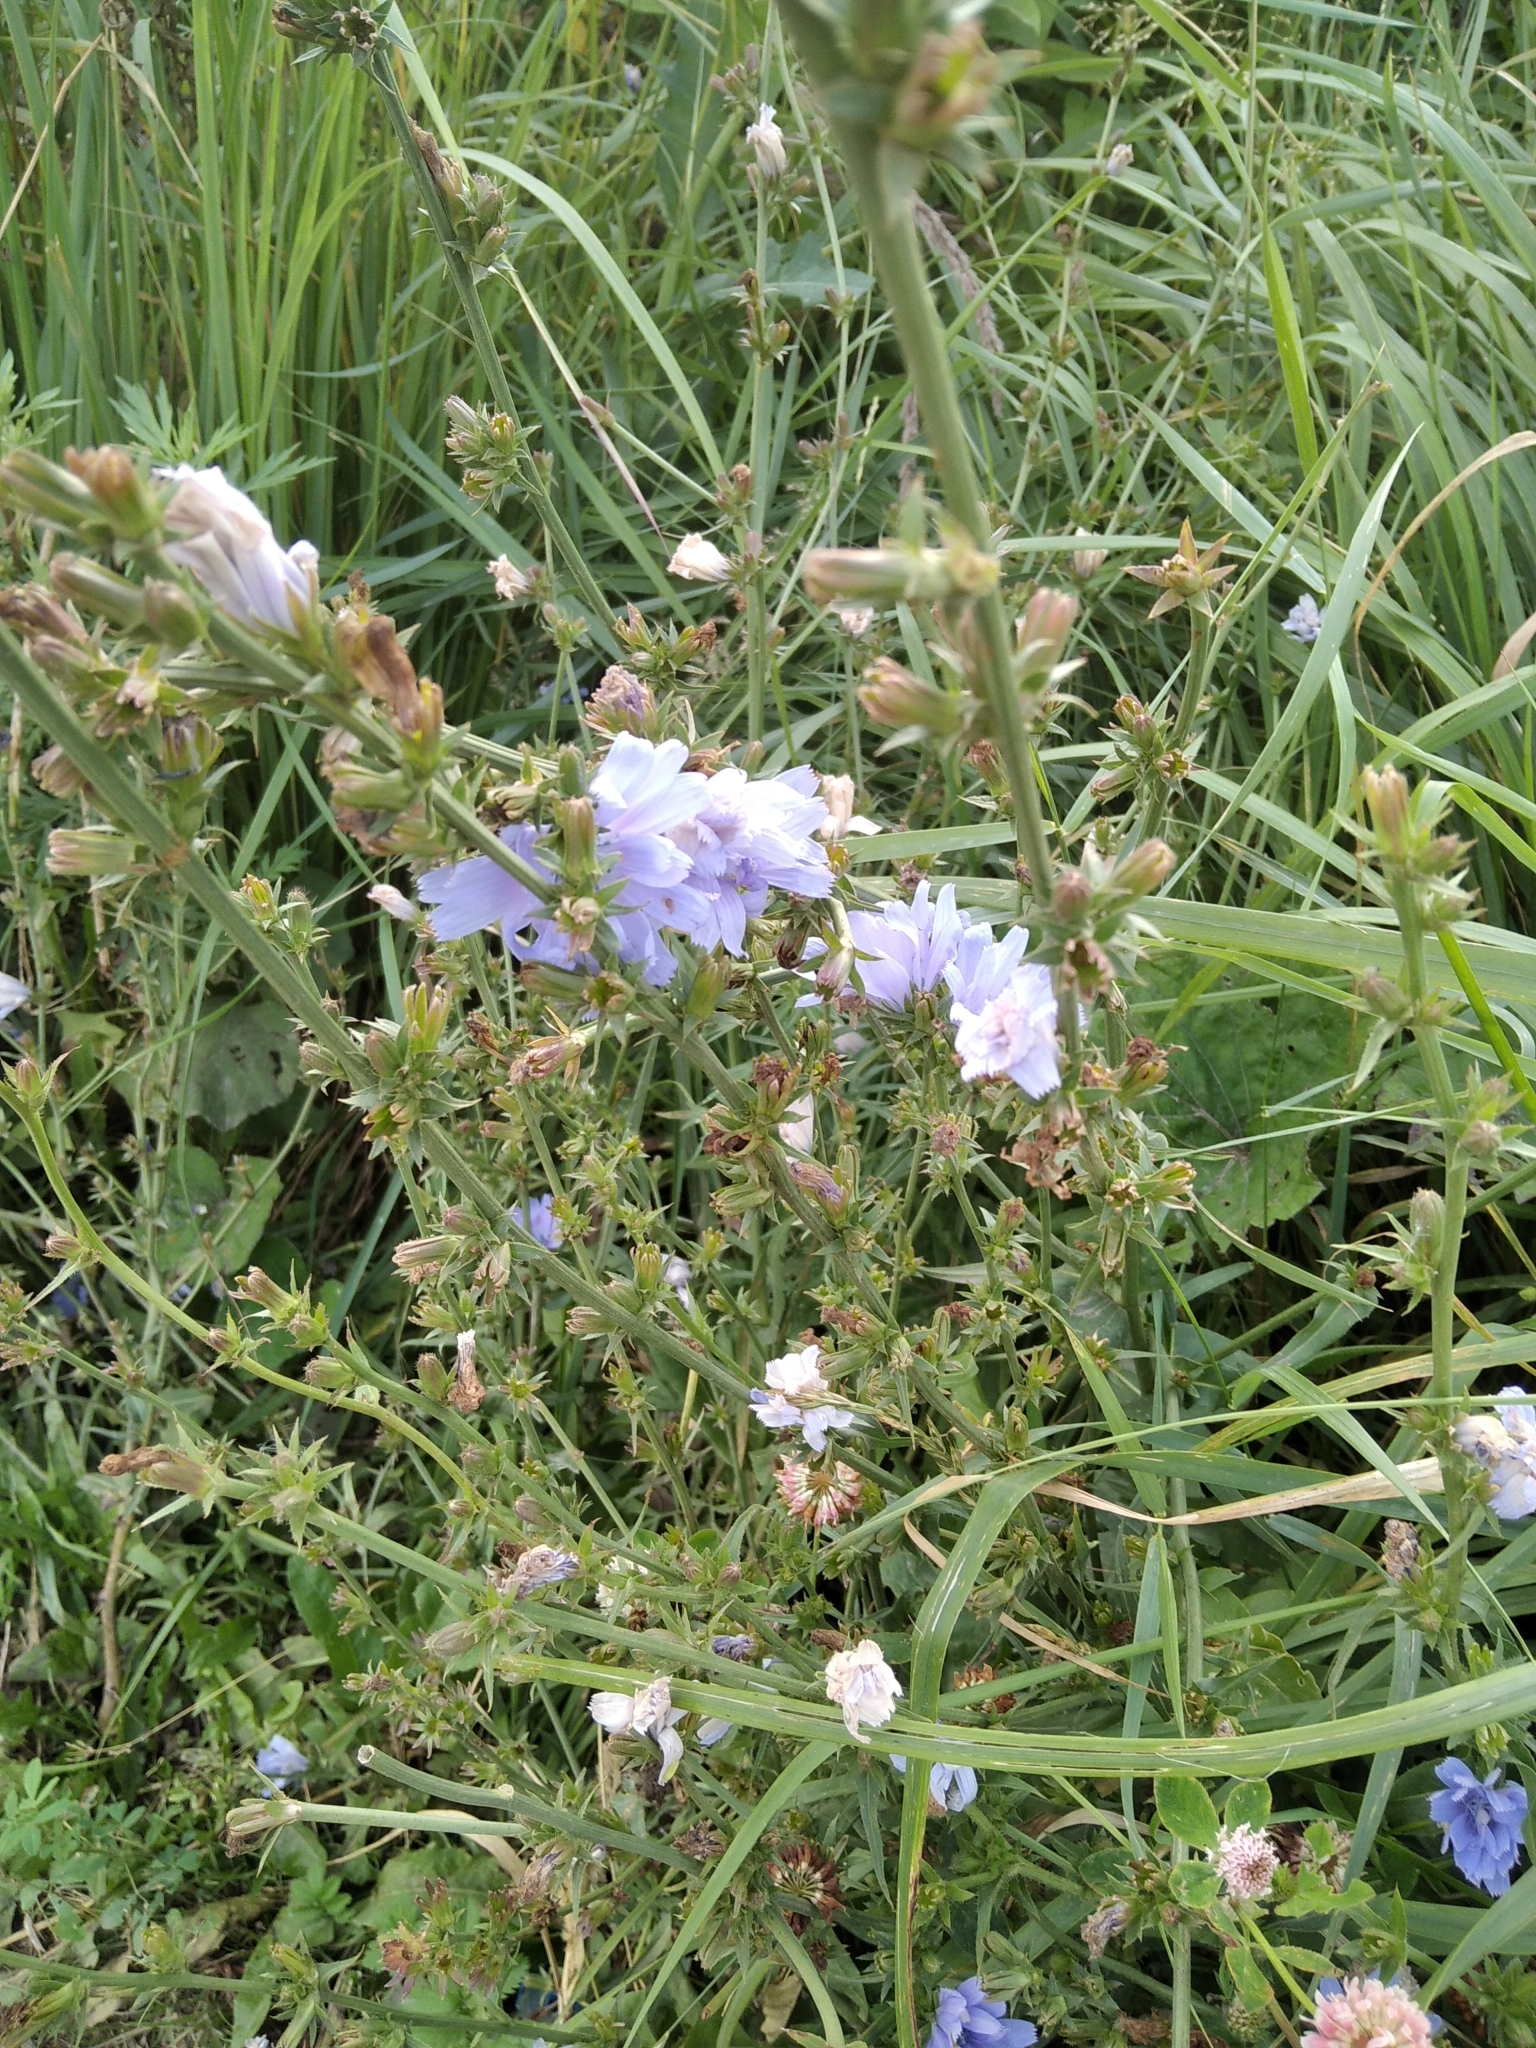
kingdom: Plantae
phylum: Tracheophyta
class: Magnoliopsida
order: Asterales
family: Asteraceae
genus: Cichorium
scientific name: Cichorium intybus
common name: Chicory
